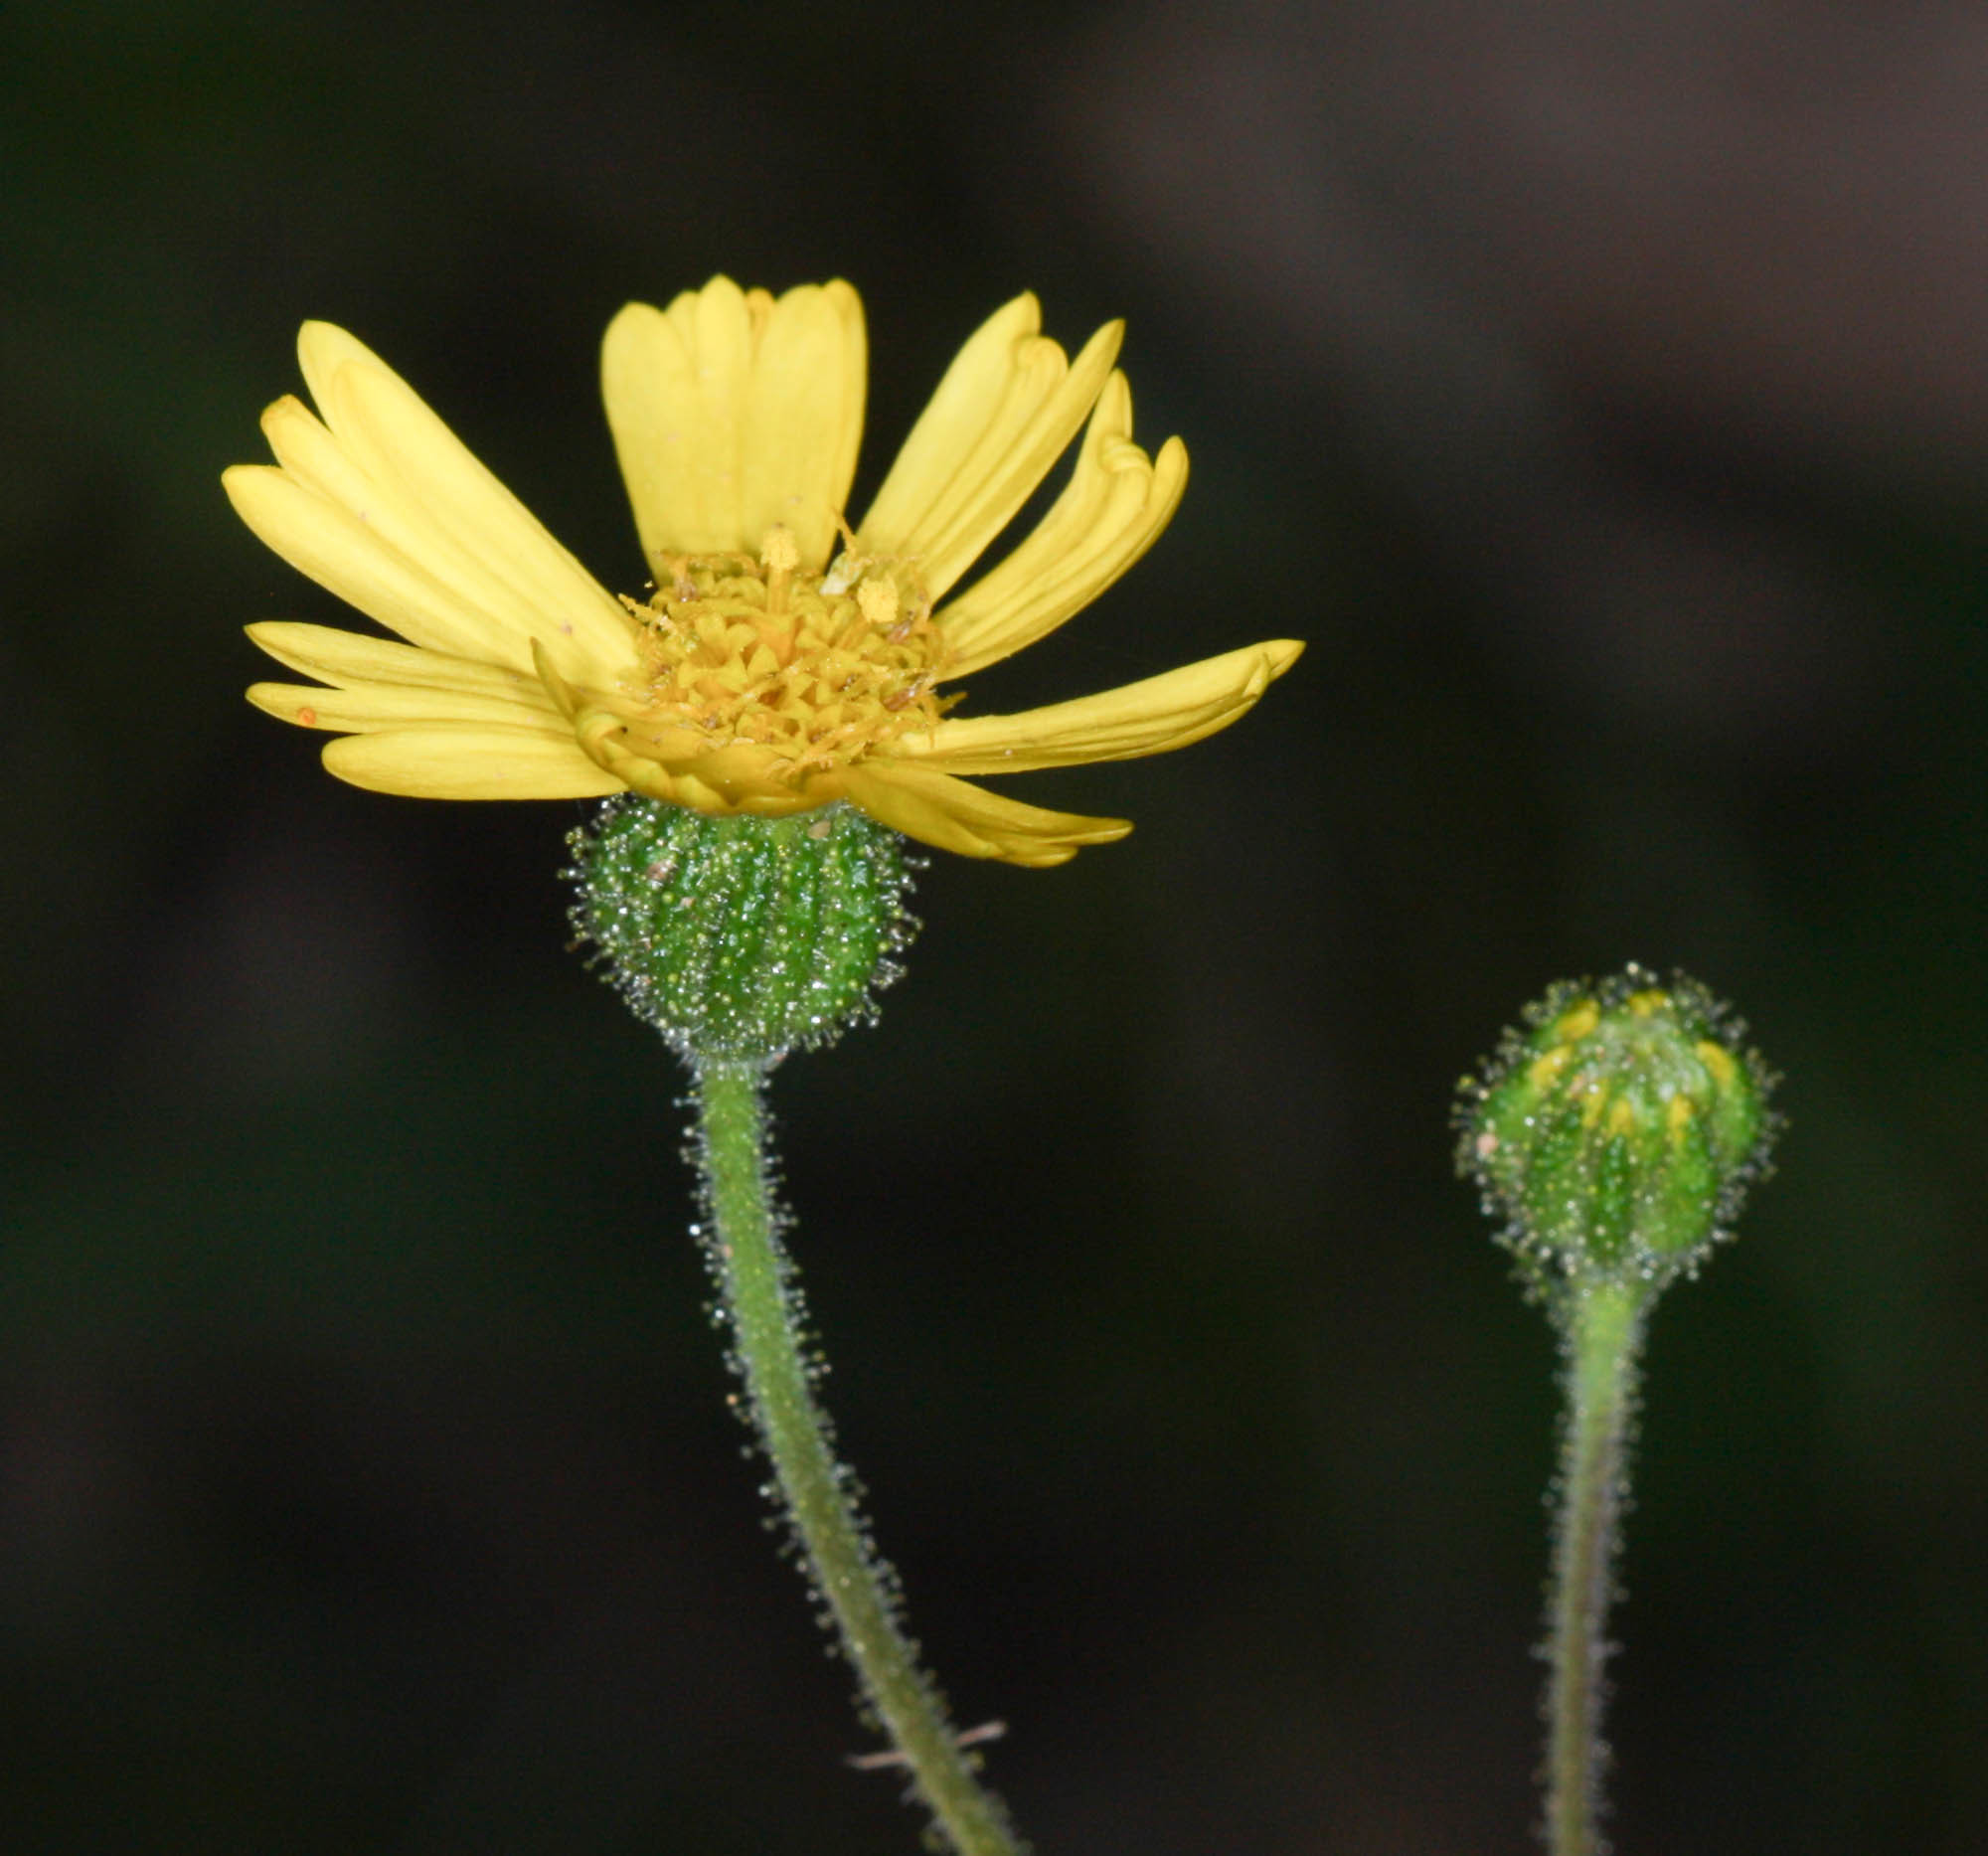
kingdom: Plantae
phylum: Tracheophyta
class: Magnoliopsida
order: Asterales
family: Asteraceae
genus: Anisocarpus
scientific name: Anisocarpus madioides
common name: Woodland madia
